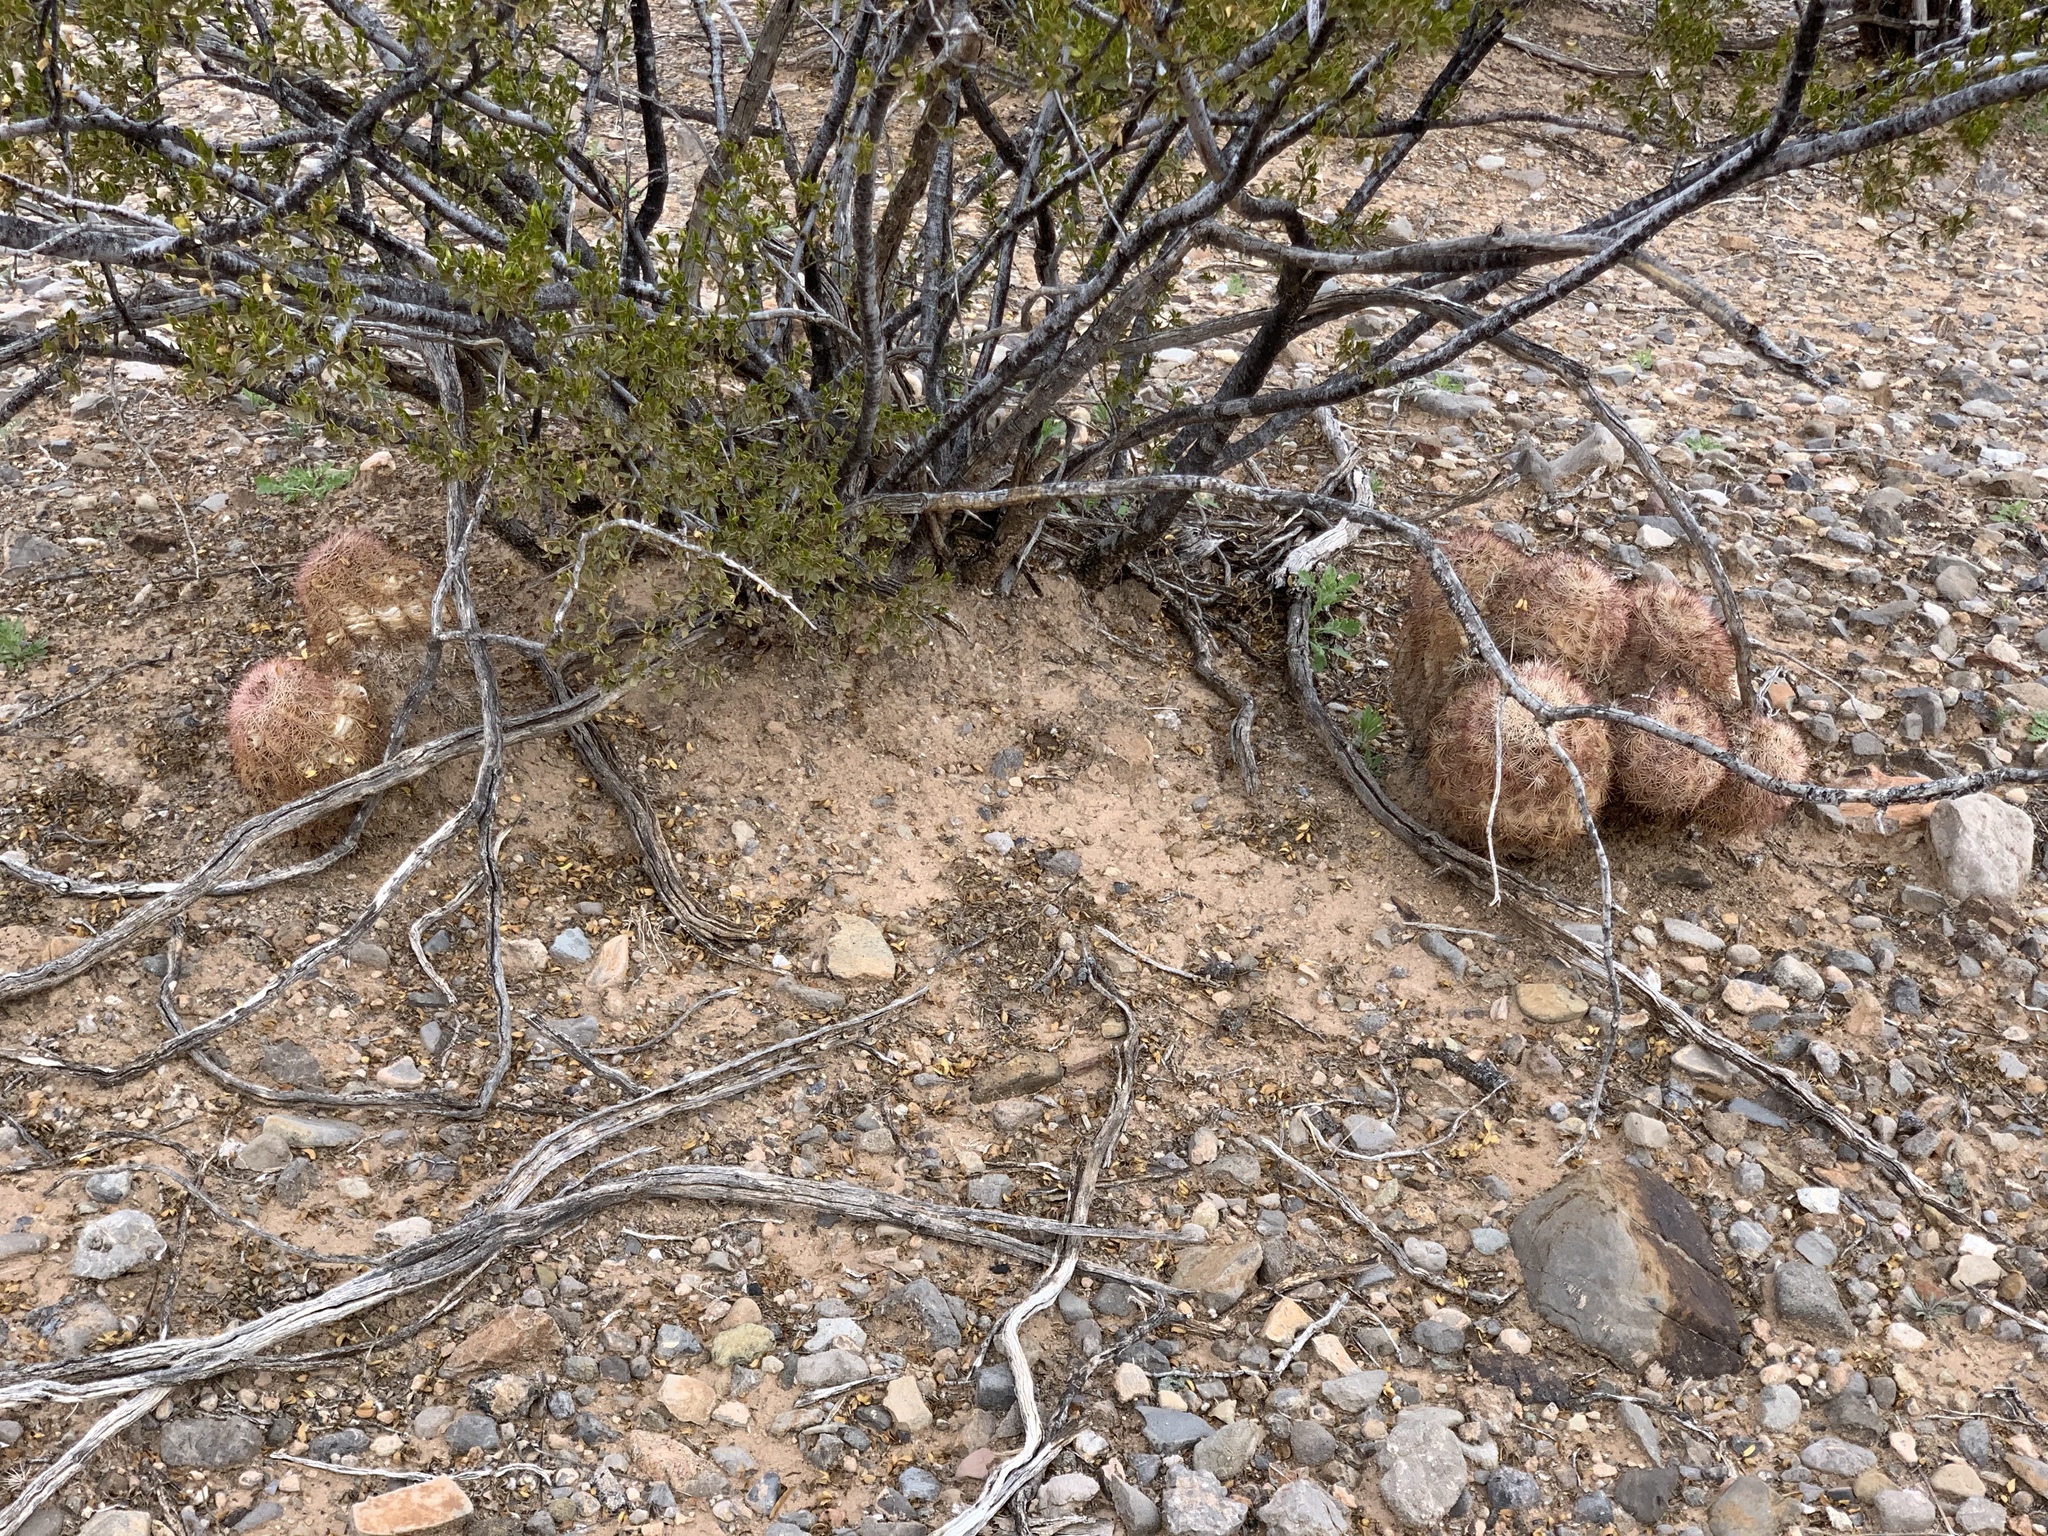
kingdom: Plantae
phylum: Tracheophyta
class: Magnoliopsida
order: Caryophyllales
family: Cactaceae
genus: Echinocereus
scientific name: Echinocereus dasyacanthus
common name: Spiny hedgehog cactus
